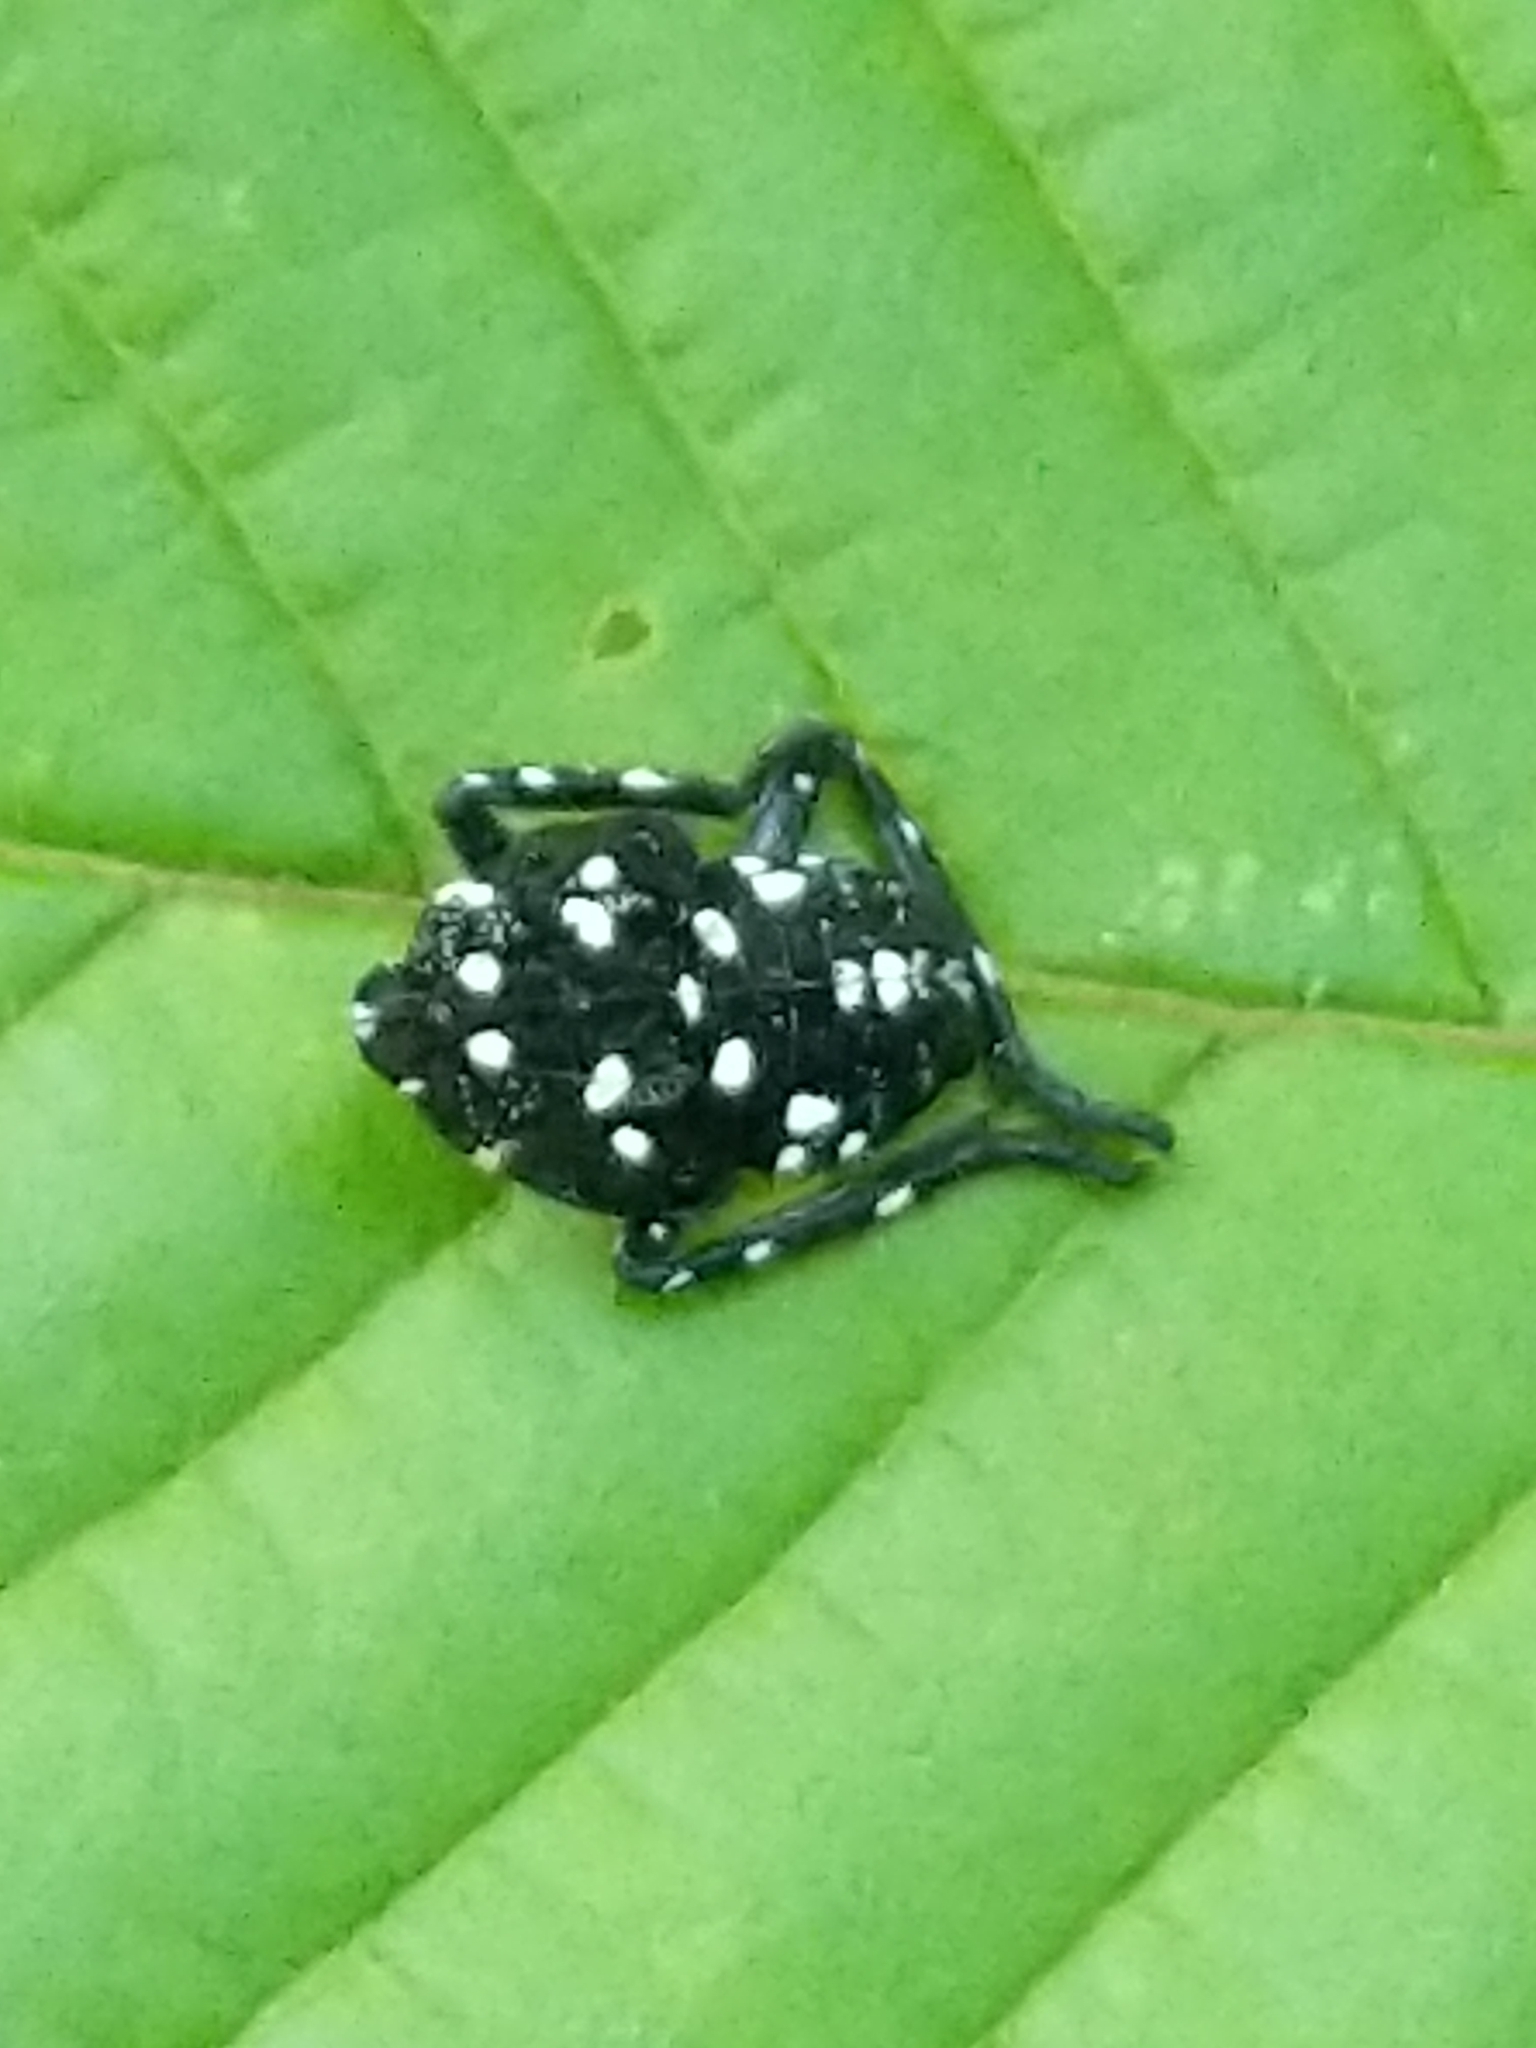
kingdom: Animalia
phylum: Arthropoda
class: Insecta
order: Hemiptera
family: Fulgoridae
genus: Lycorma
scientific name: Lycorma delicatula
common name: Spotted lanternfly
